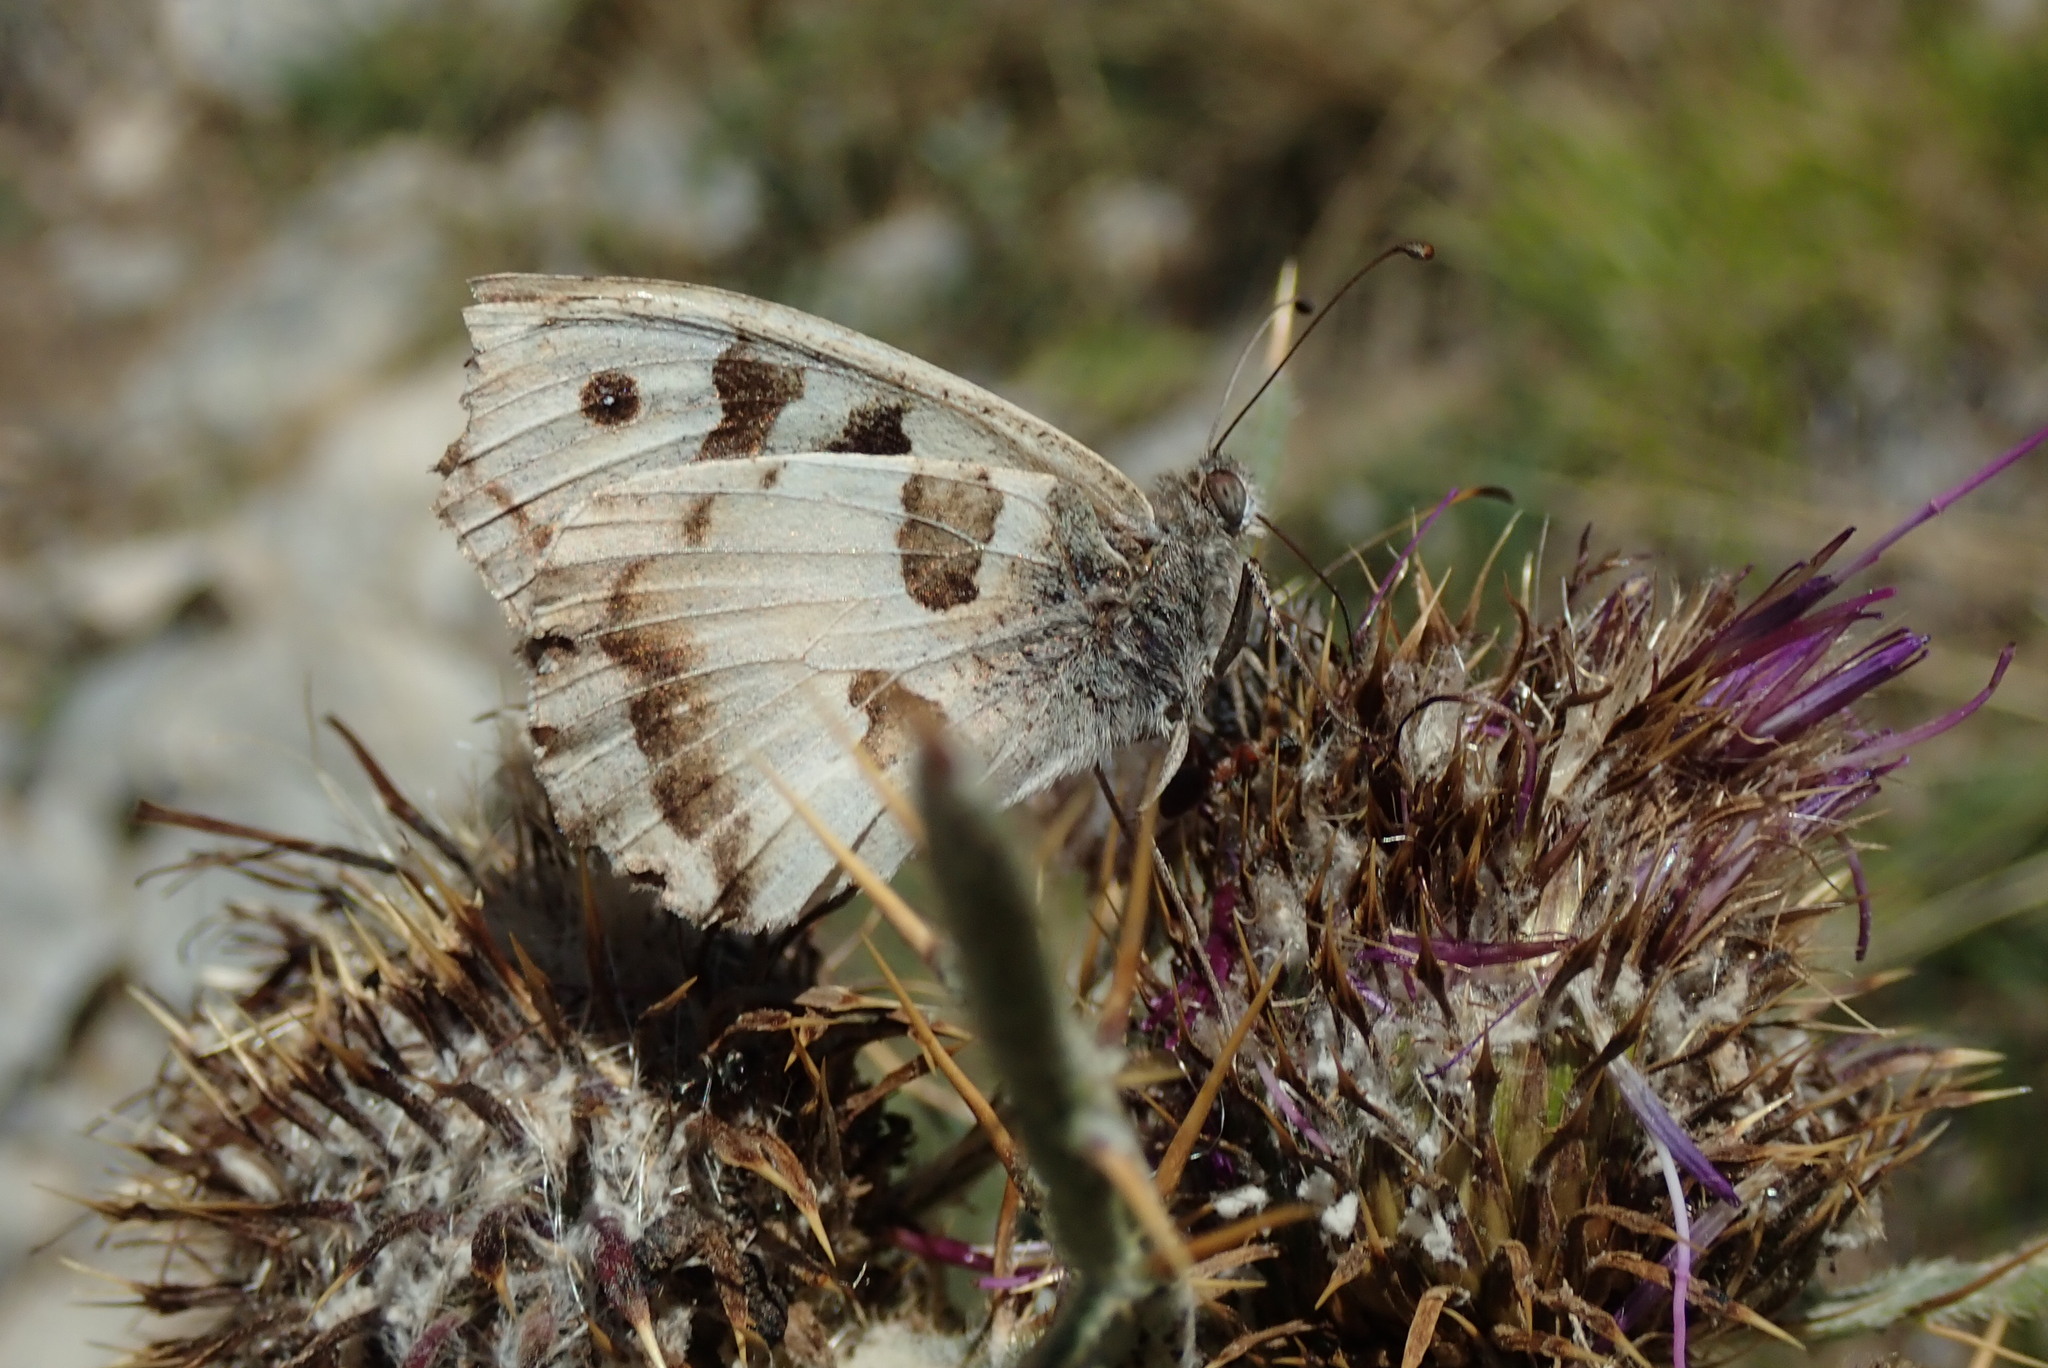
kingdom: Animalia
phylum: Arthropoda
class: Insecta
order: Lepidoptera
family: Nymphalidae
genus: Satyrus
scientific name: Satyrus briseis
